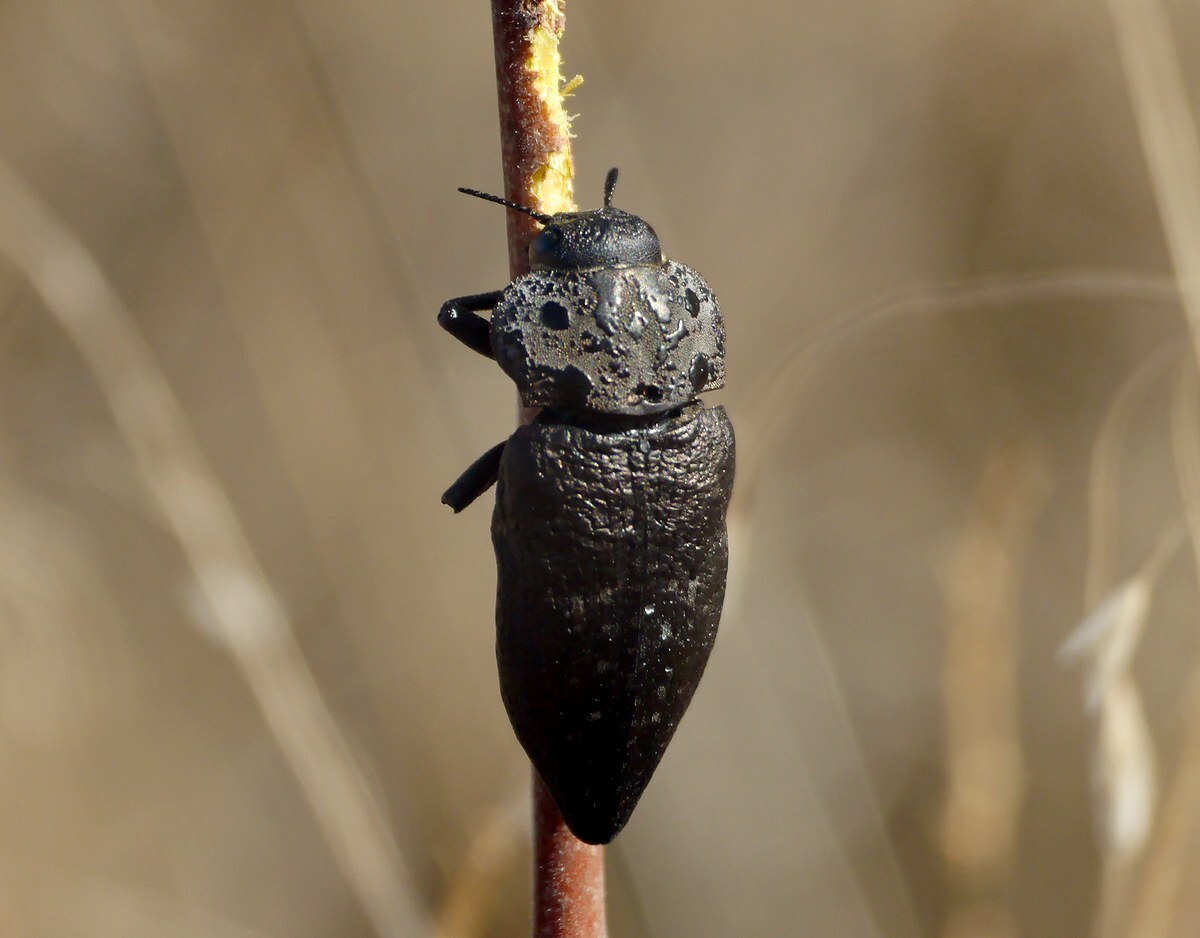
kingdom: Animalia
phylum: Arthropoda
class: Insecta
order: Coleoptera
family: Buprestidae
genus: Capnodis
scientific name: Capnodis tenebrionis
